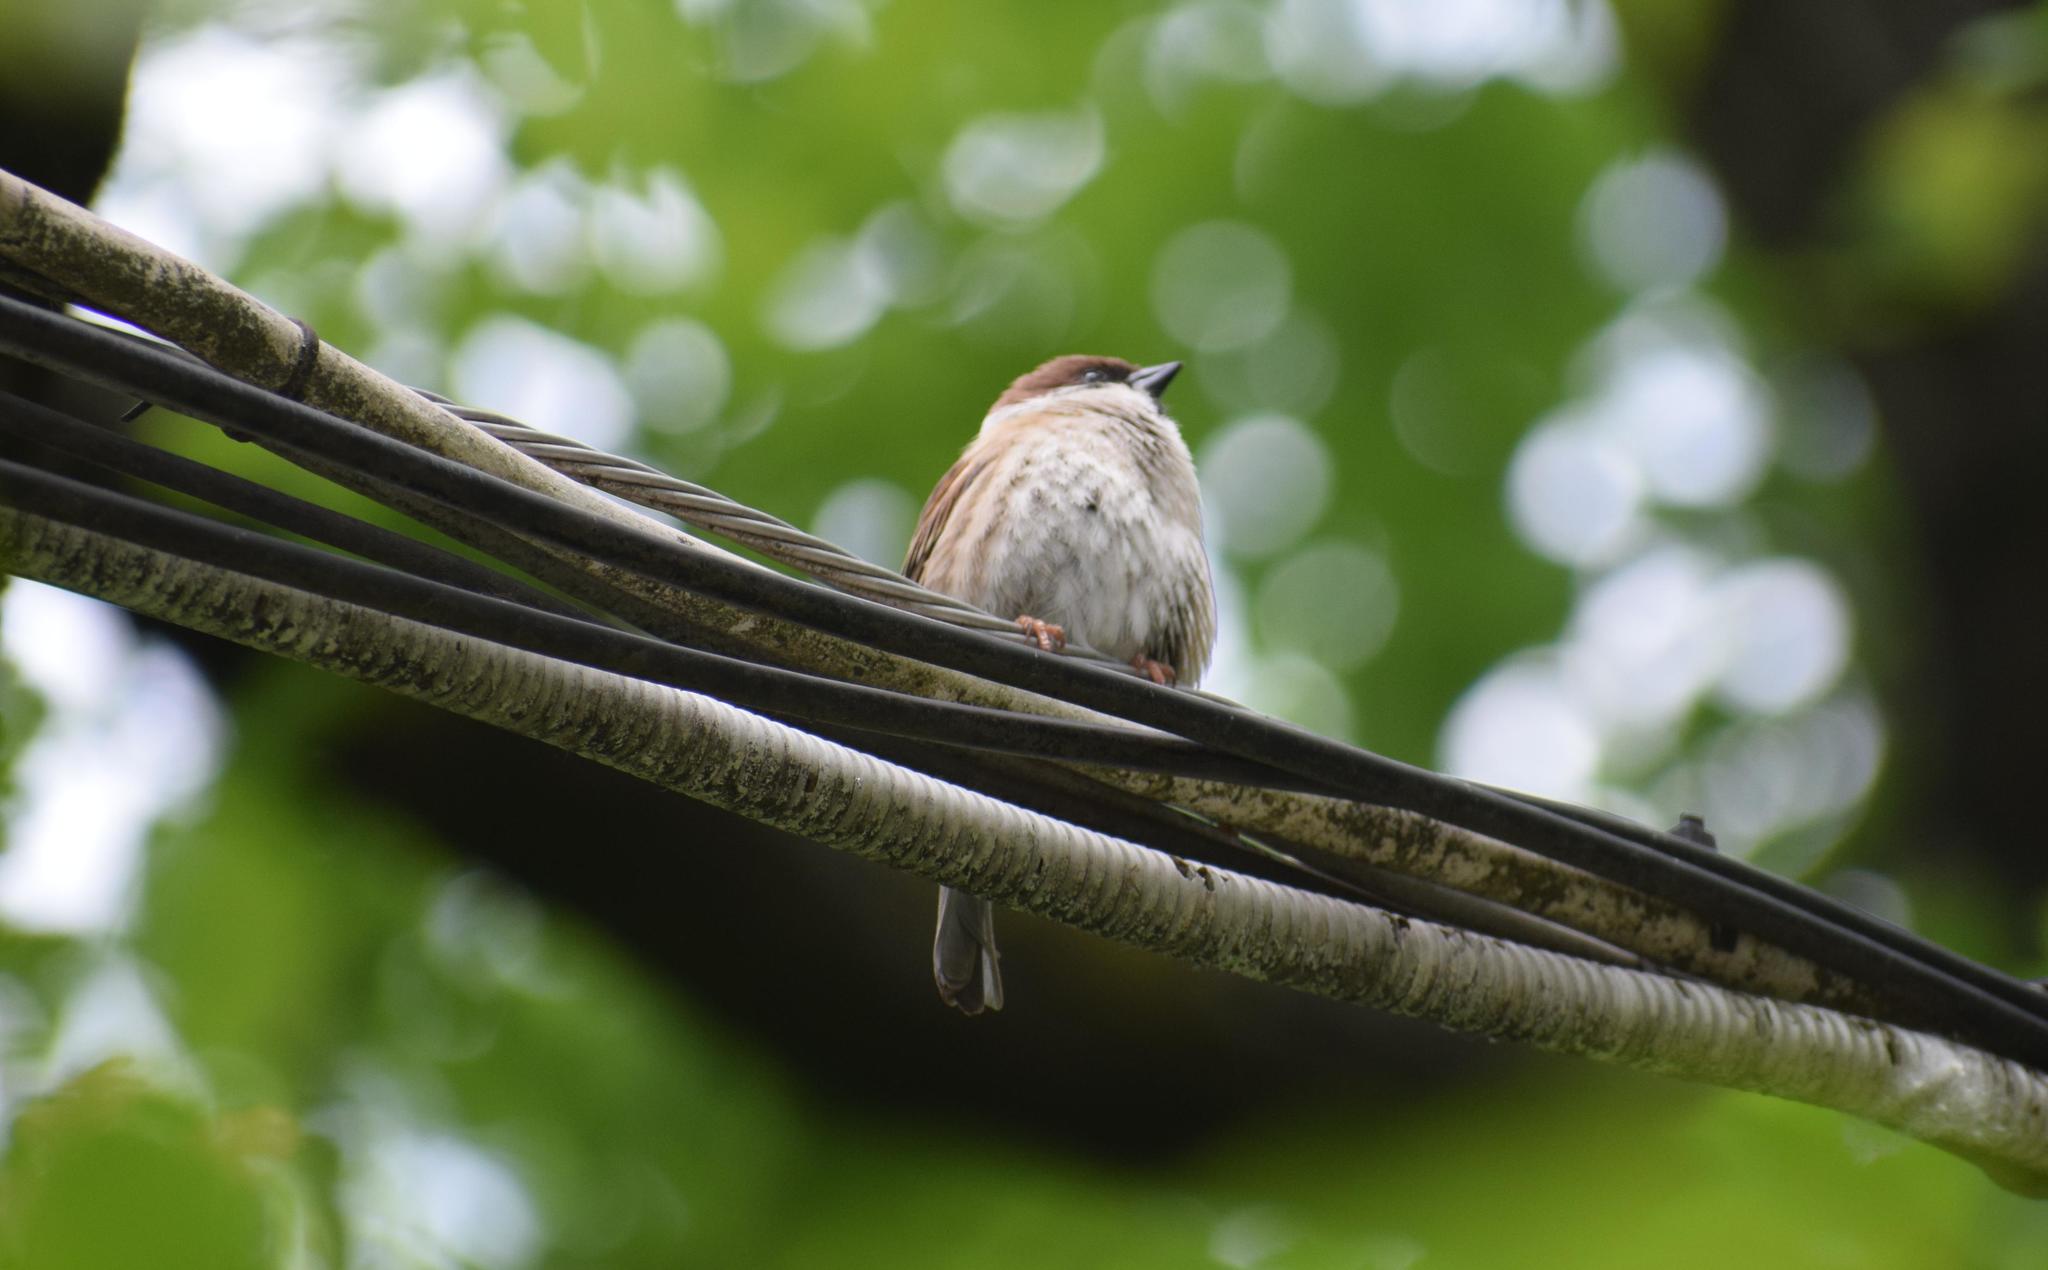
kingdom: Animalia
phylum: Chordata
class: Aves
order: Passeriformes
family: Passeridae
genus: Passer
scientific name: Passer montanus
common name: Eurasian tree sparrow
